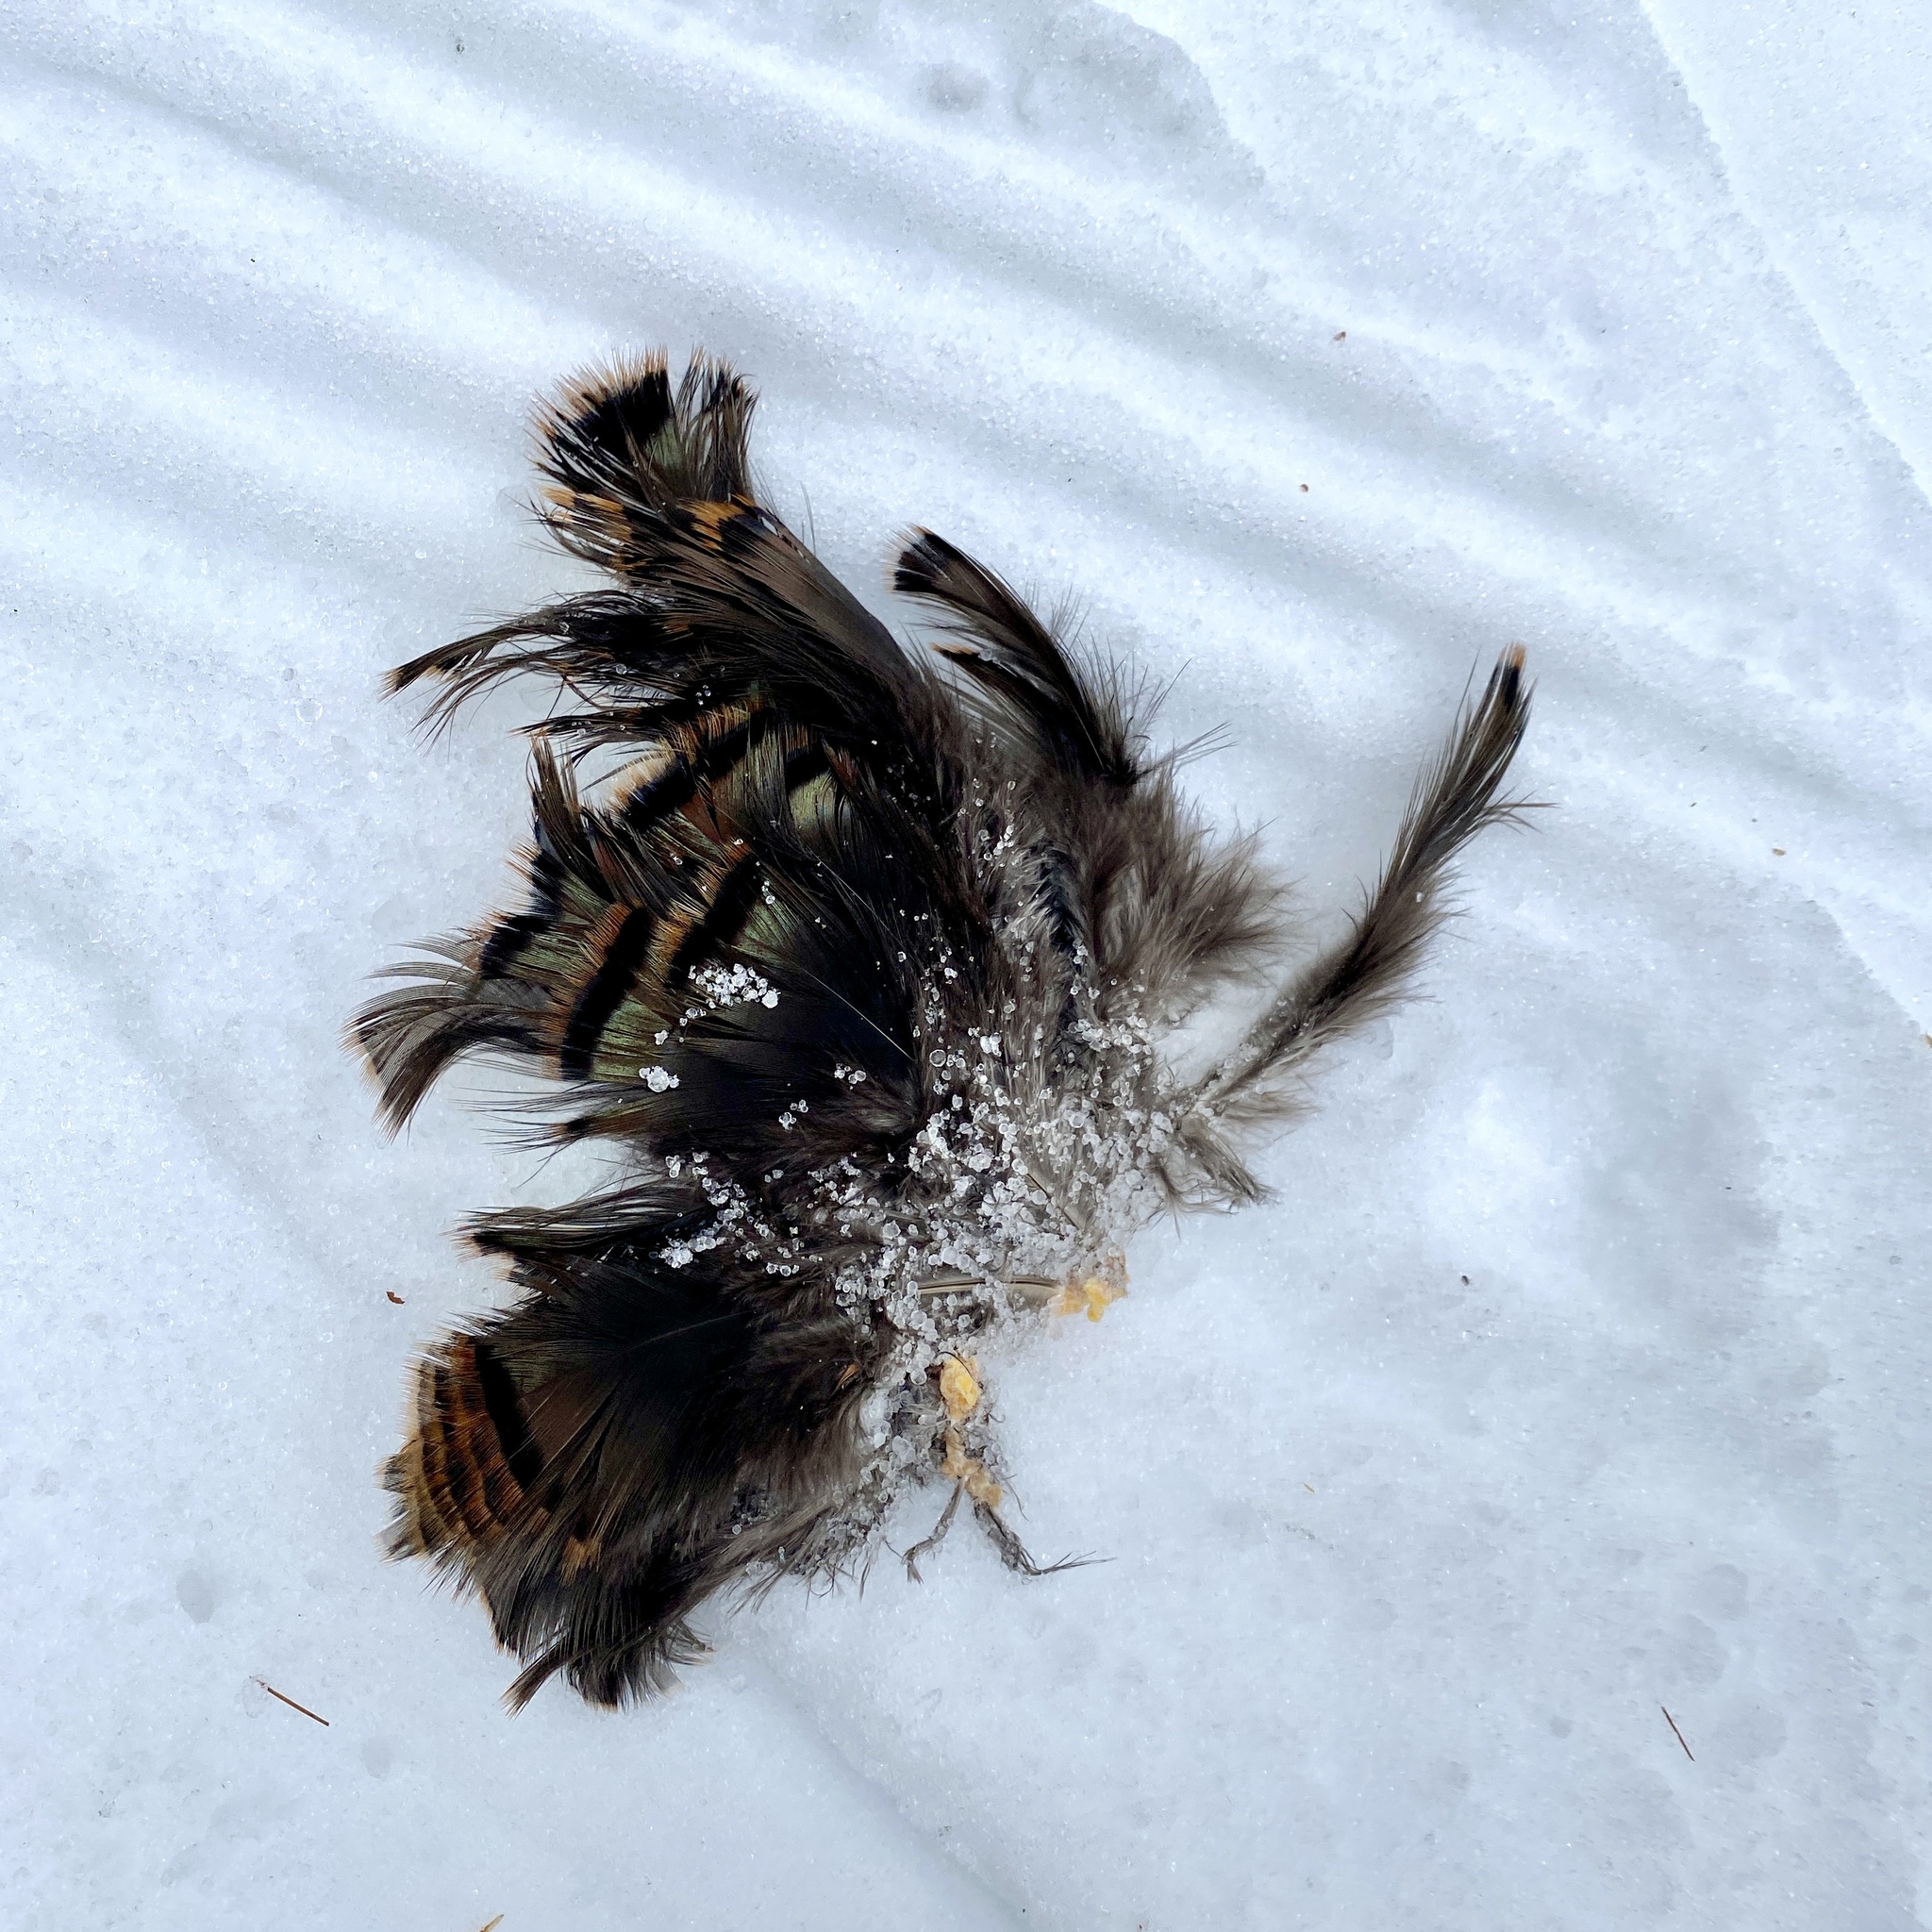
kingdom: Animalia
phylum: Chordata
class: Aves
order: Galliformes
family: Phasianidae
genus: Meleagris
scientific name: Meleagris gallopavo
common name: Wild turkey
